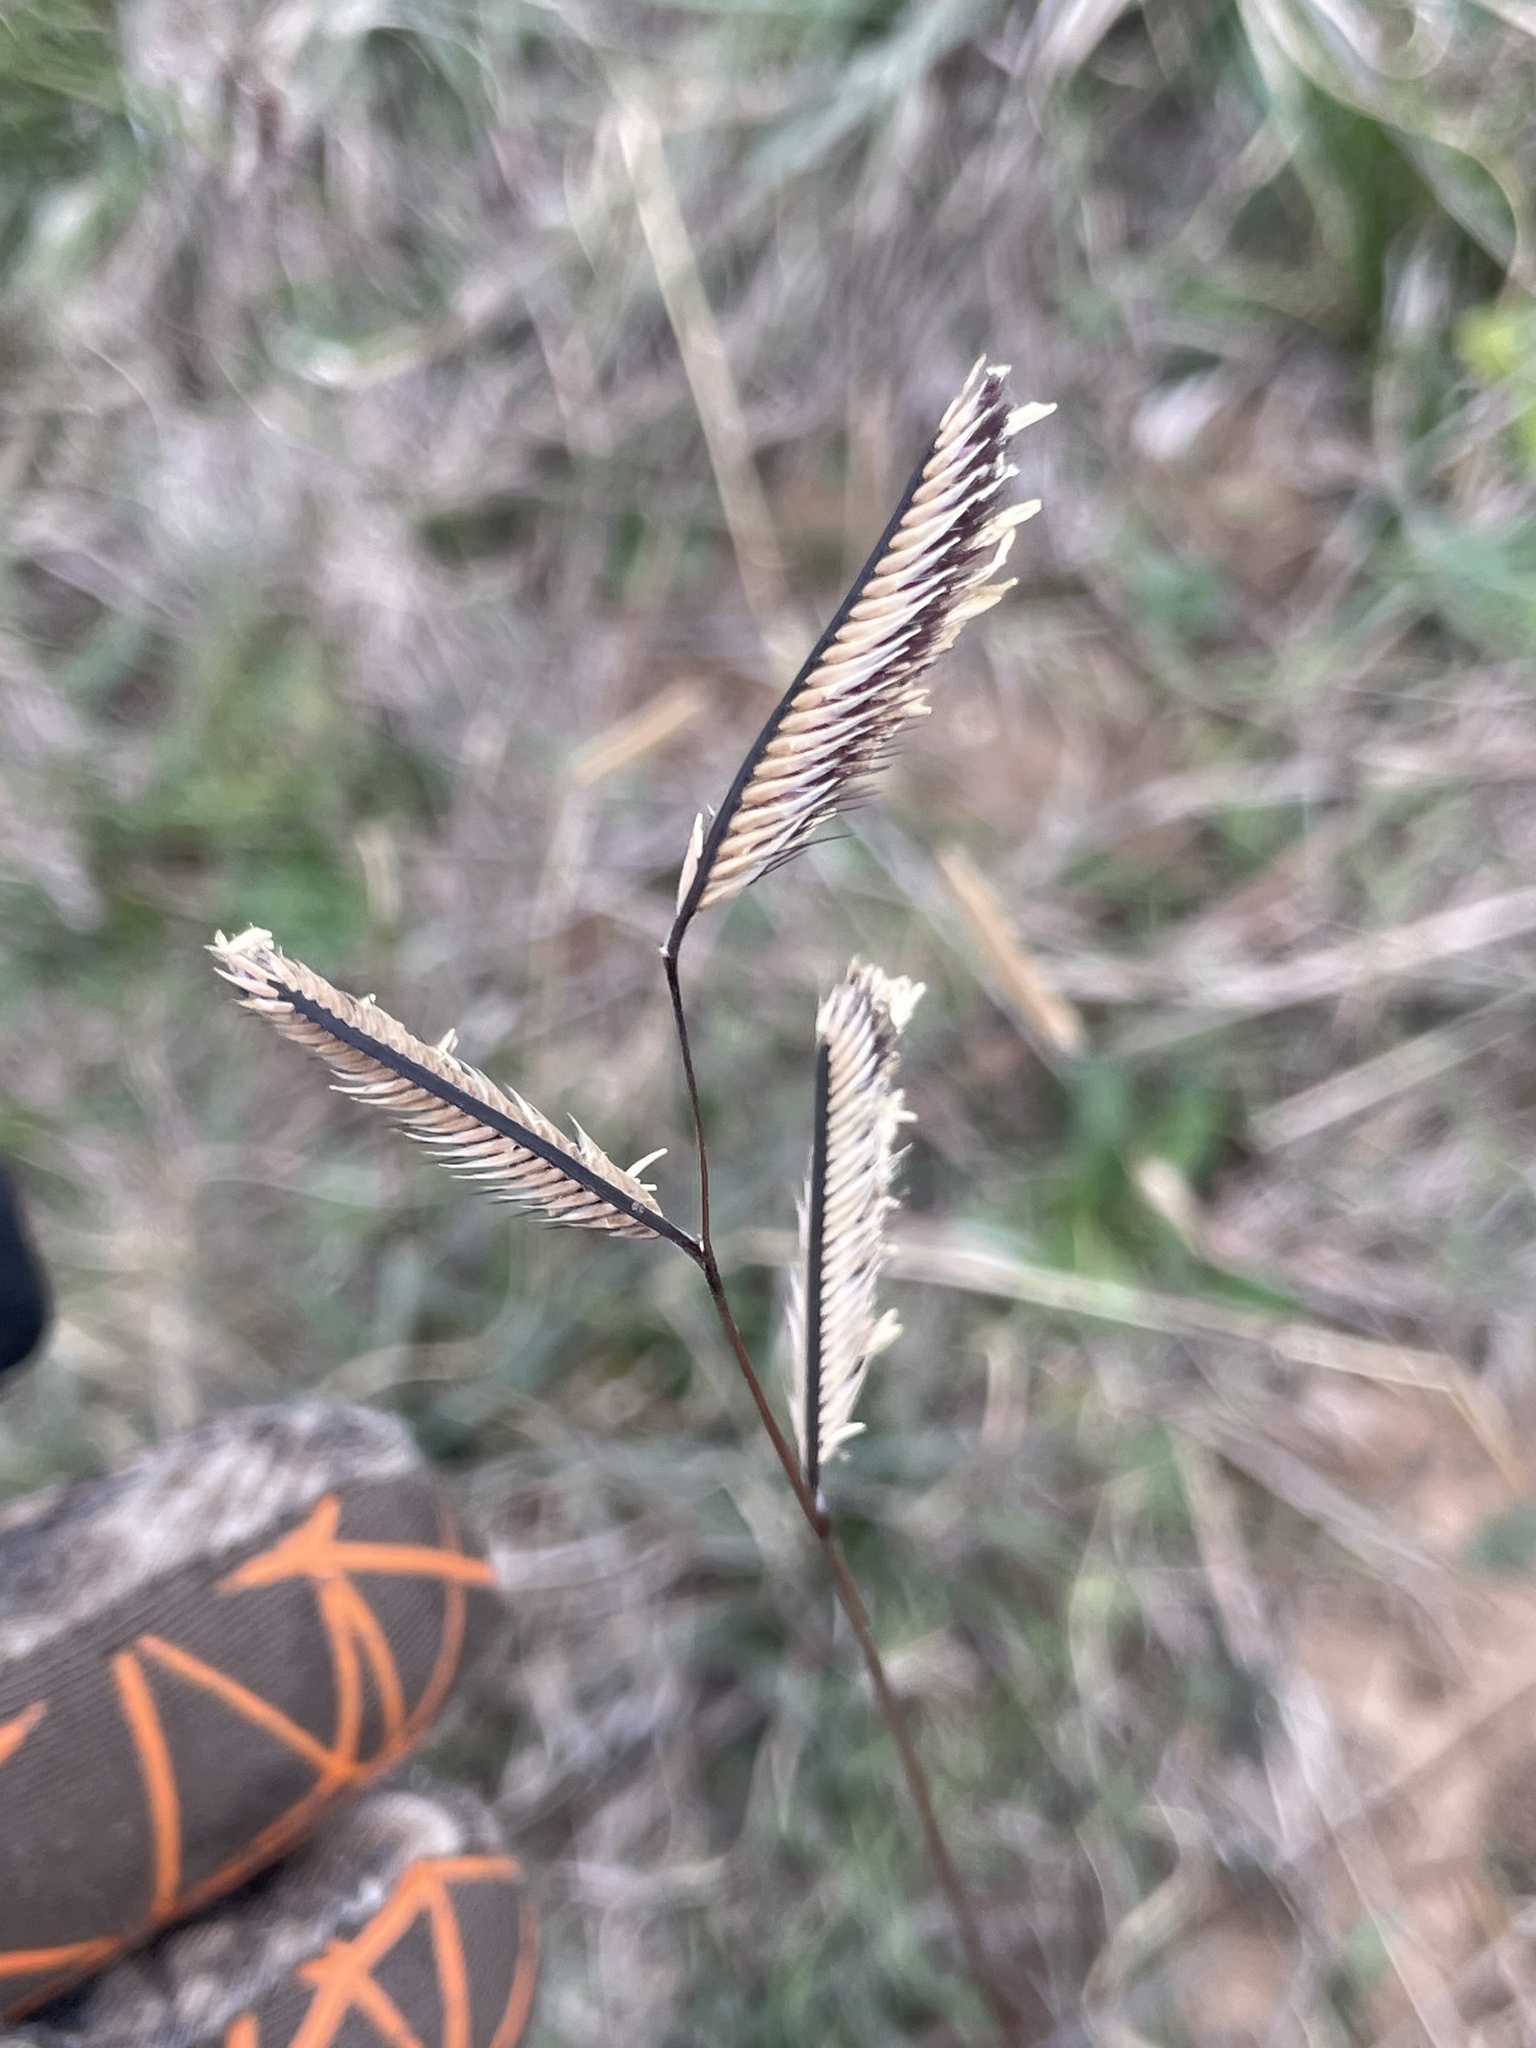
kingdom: Plantae
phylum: Tracheophyta
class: Liliopsida
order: Poales
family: Poaceae
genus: Bouteloua
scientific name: Bouteloua gracilis
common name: Blue grama
